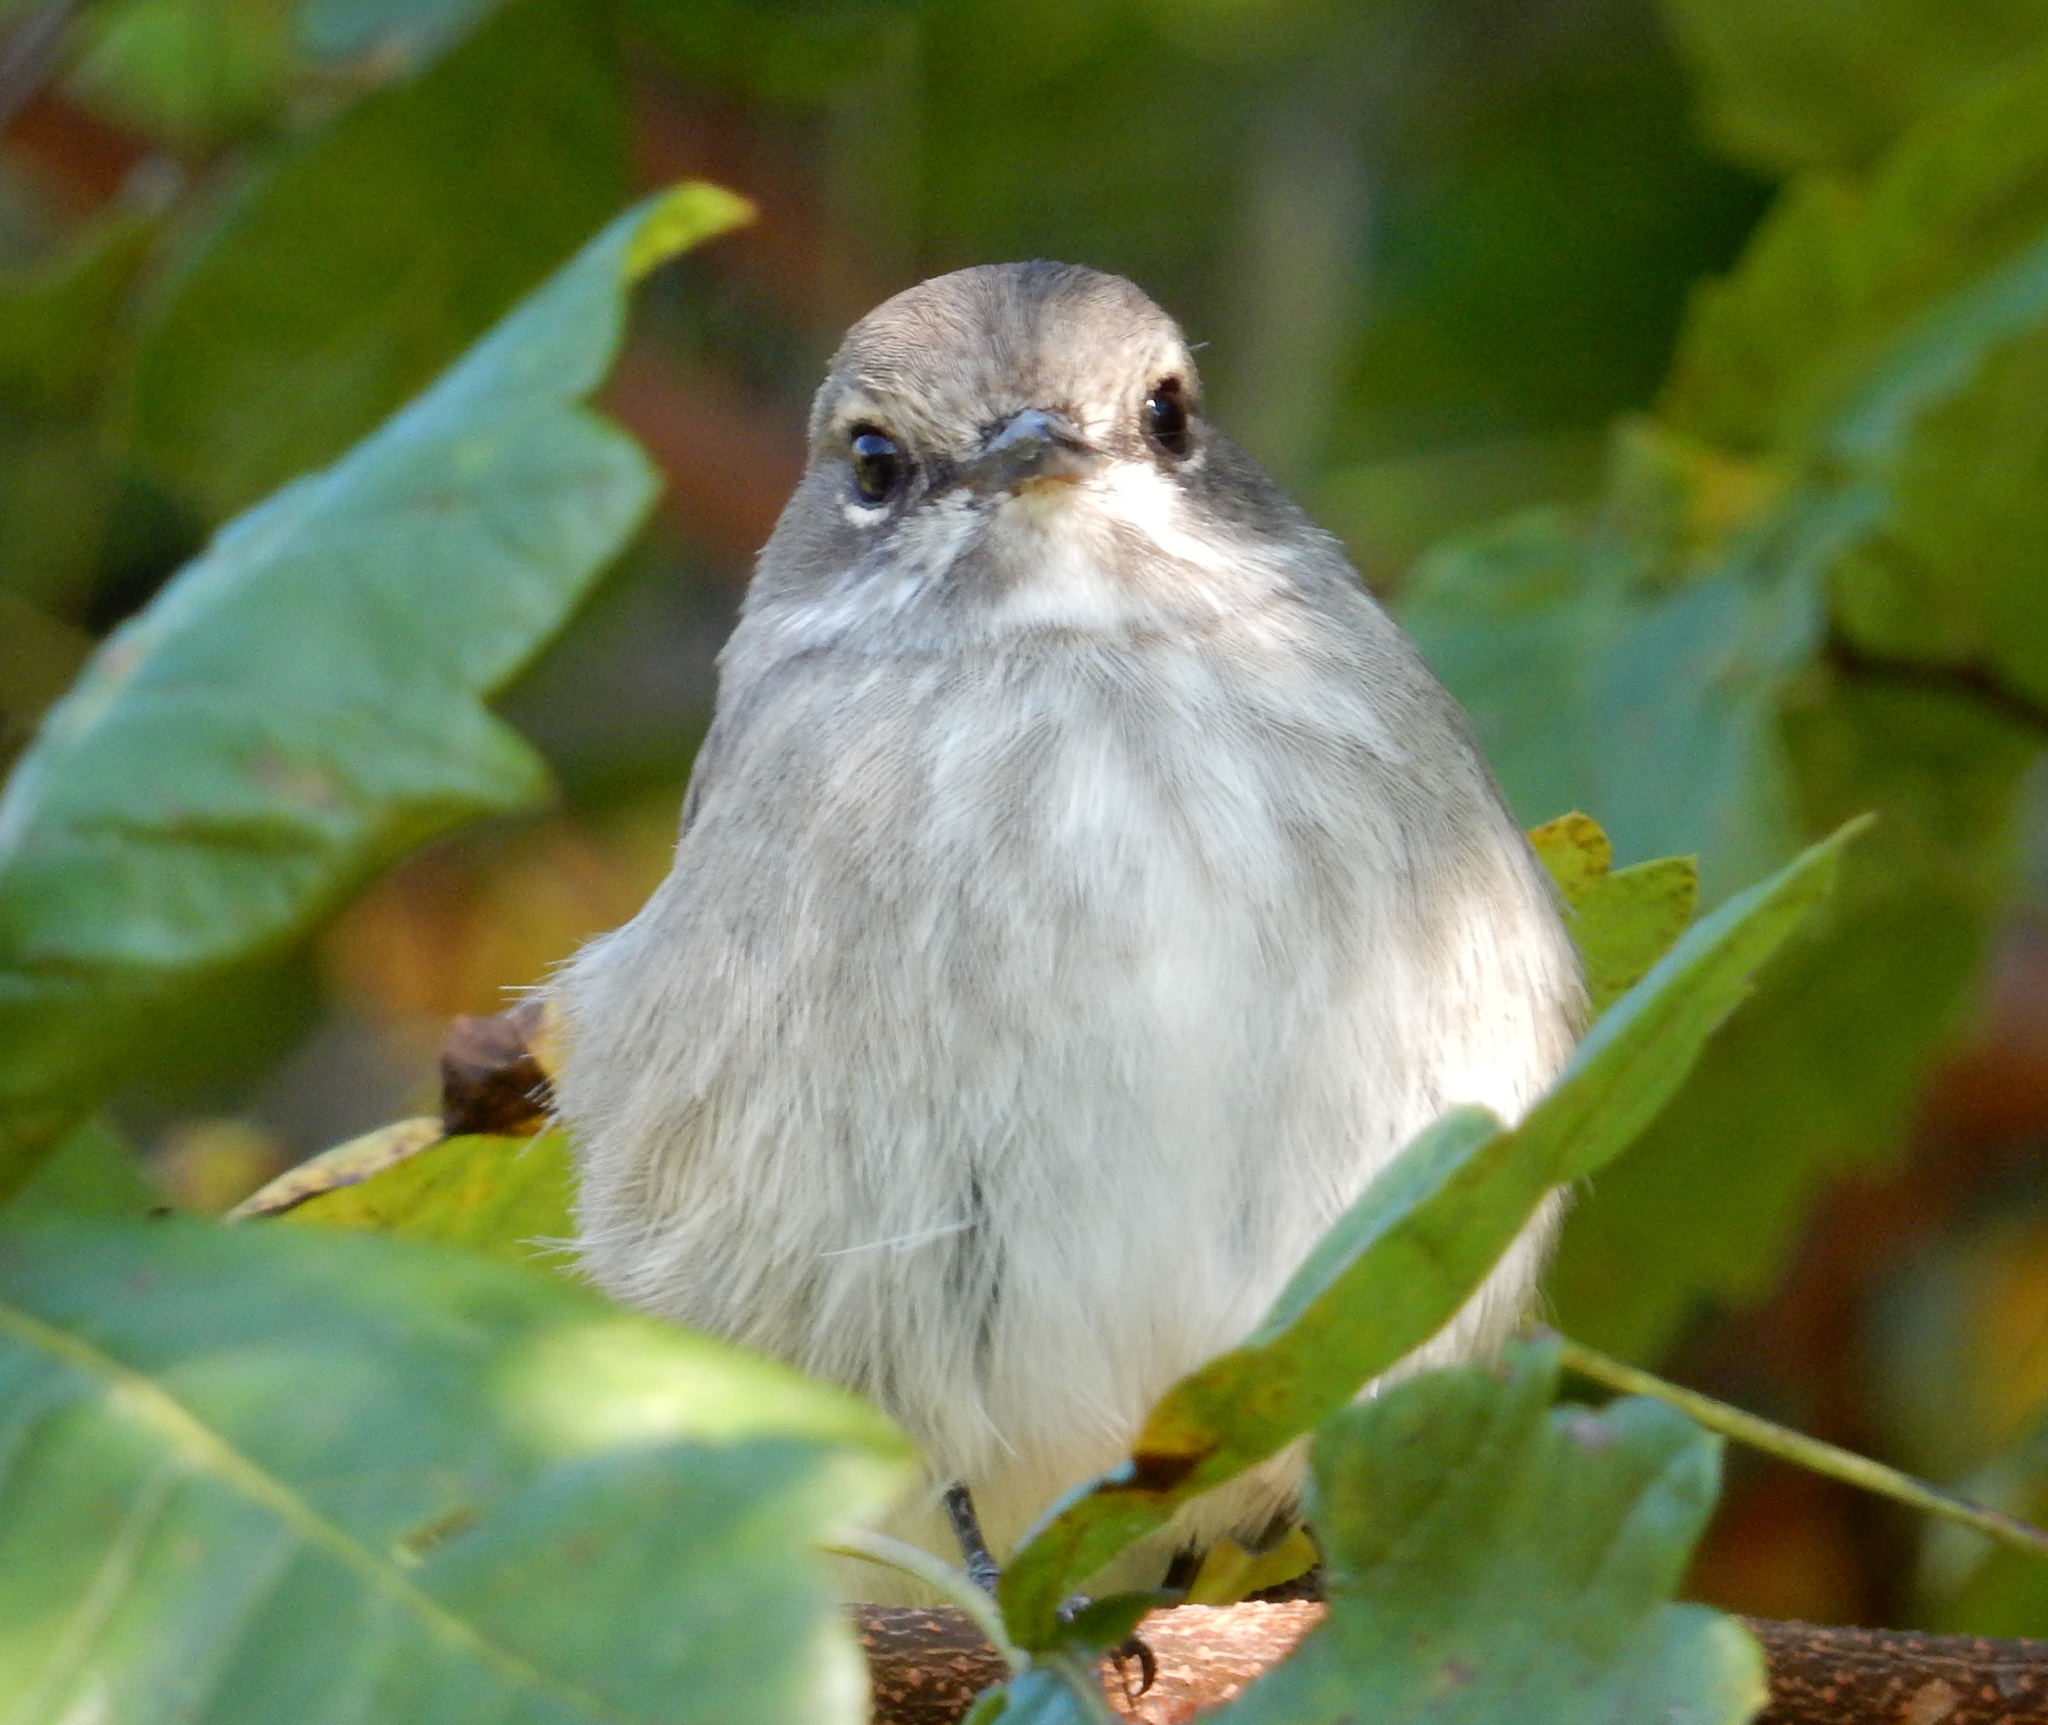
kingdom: Animalia
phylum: Chordata
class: Aves
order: Passeriformes
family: Muscicapidae
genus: Muscicapa
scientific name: Muscicapa adusta
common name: African dusky flycatcher
